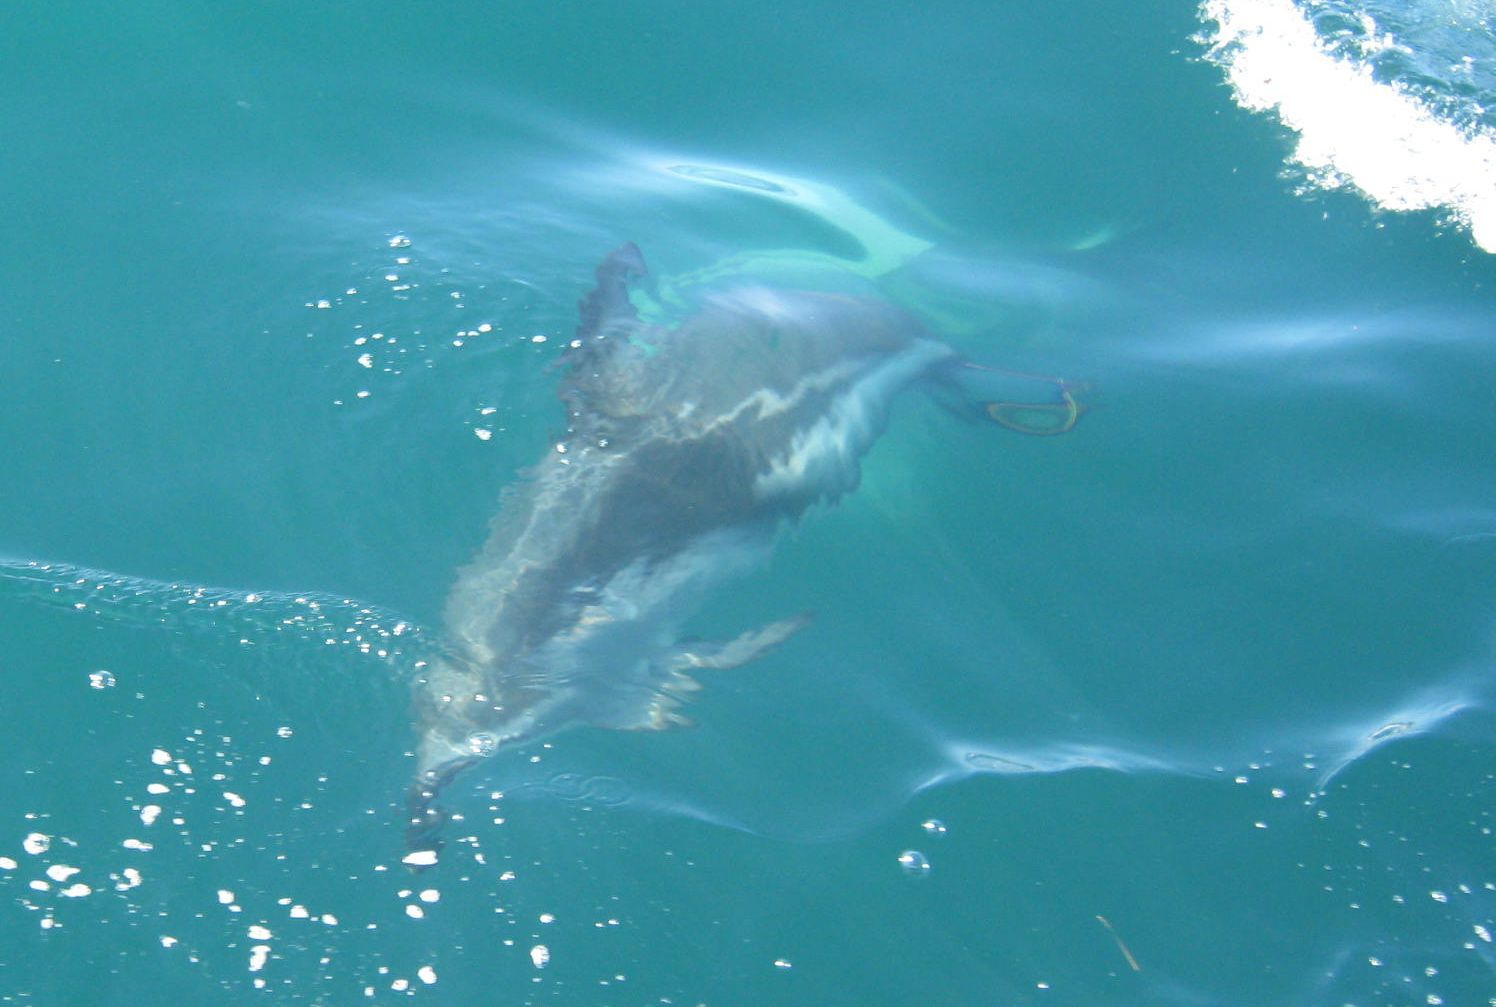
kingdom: Animalia
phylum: Chordata
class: Mammalia
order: Cetacea
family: Delphinidae
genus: Lagenorhynchus
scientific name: Lagenorhynchus obscurus
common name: Dusky dolphin
